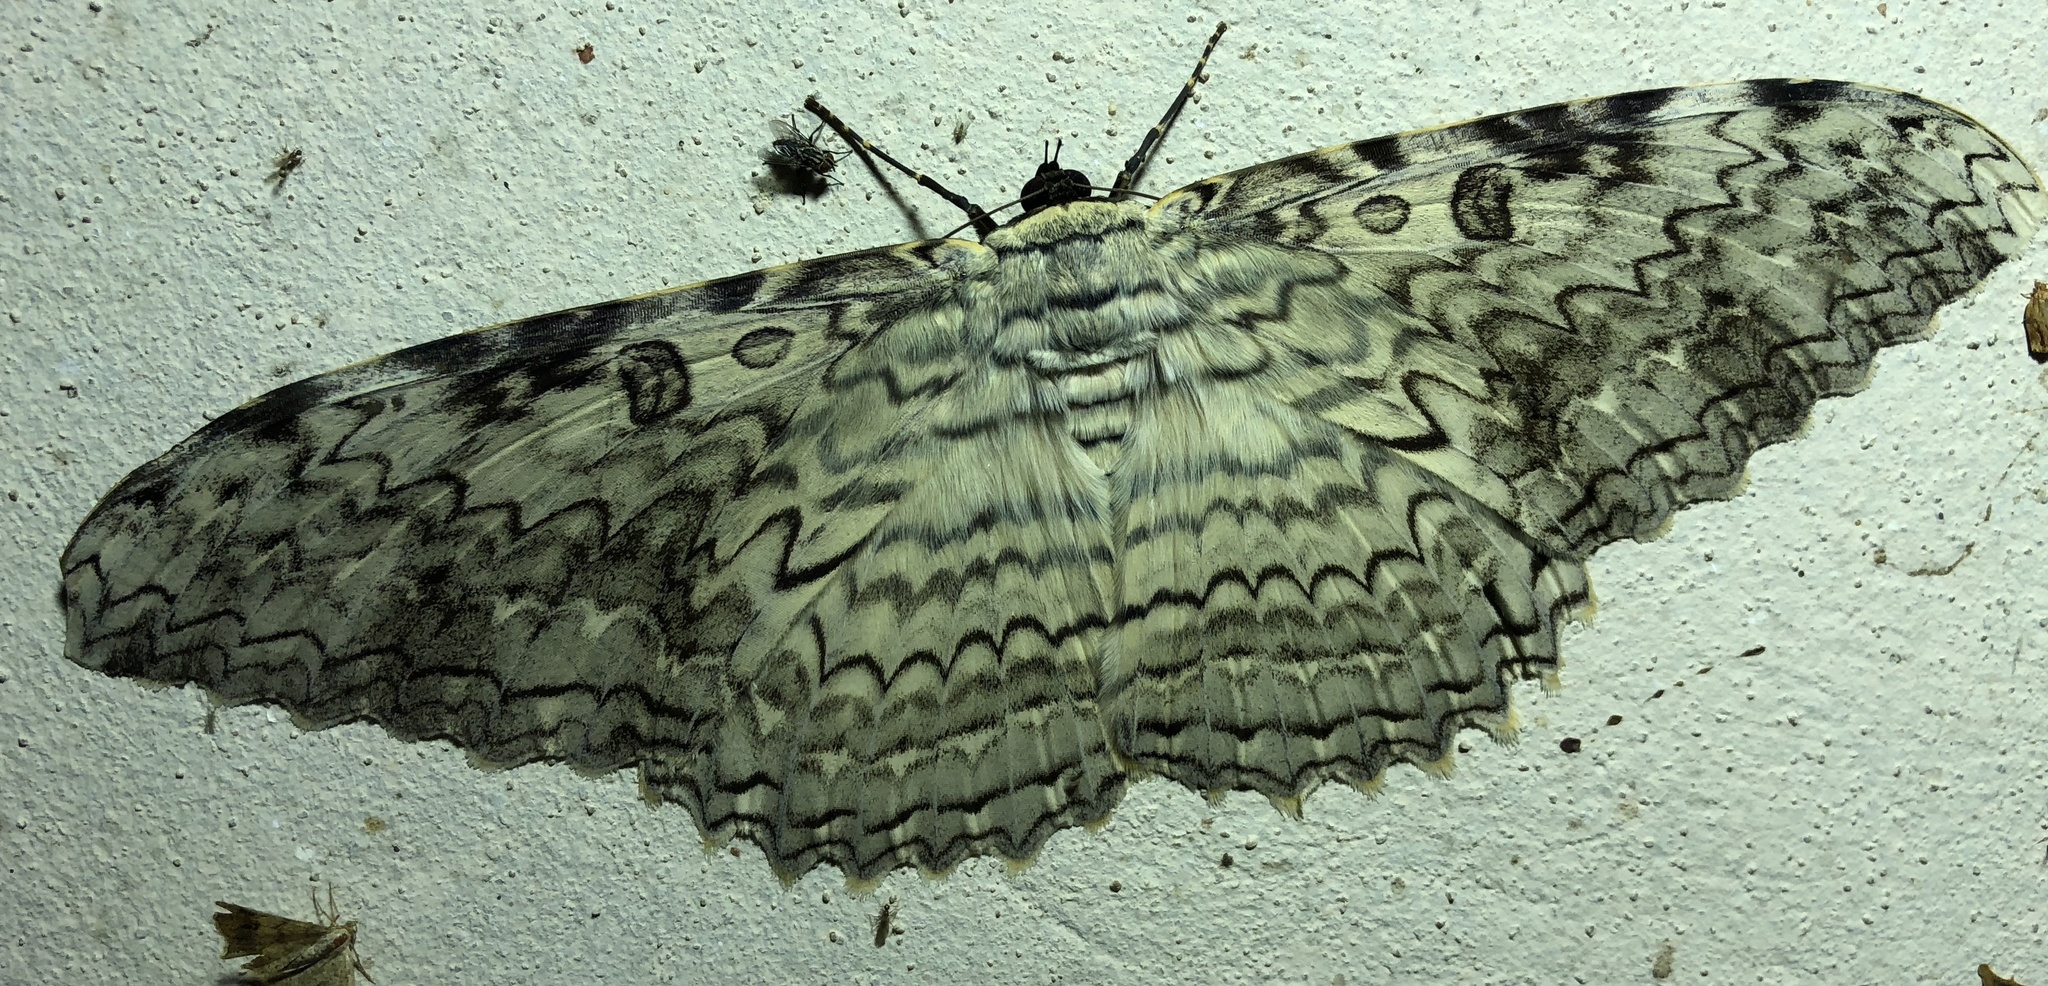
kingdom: Animalia
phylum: Arthropoda
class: Insecta
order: Lepidoptera
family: Erebidae
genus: Thysania
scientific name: Thysania agrippina
